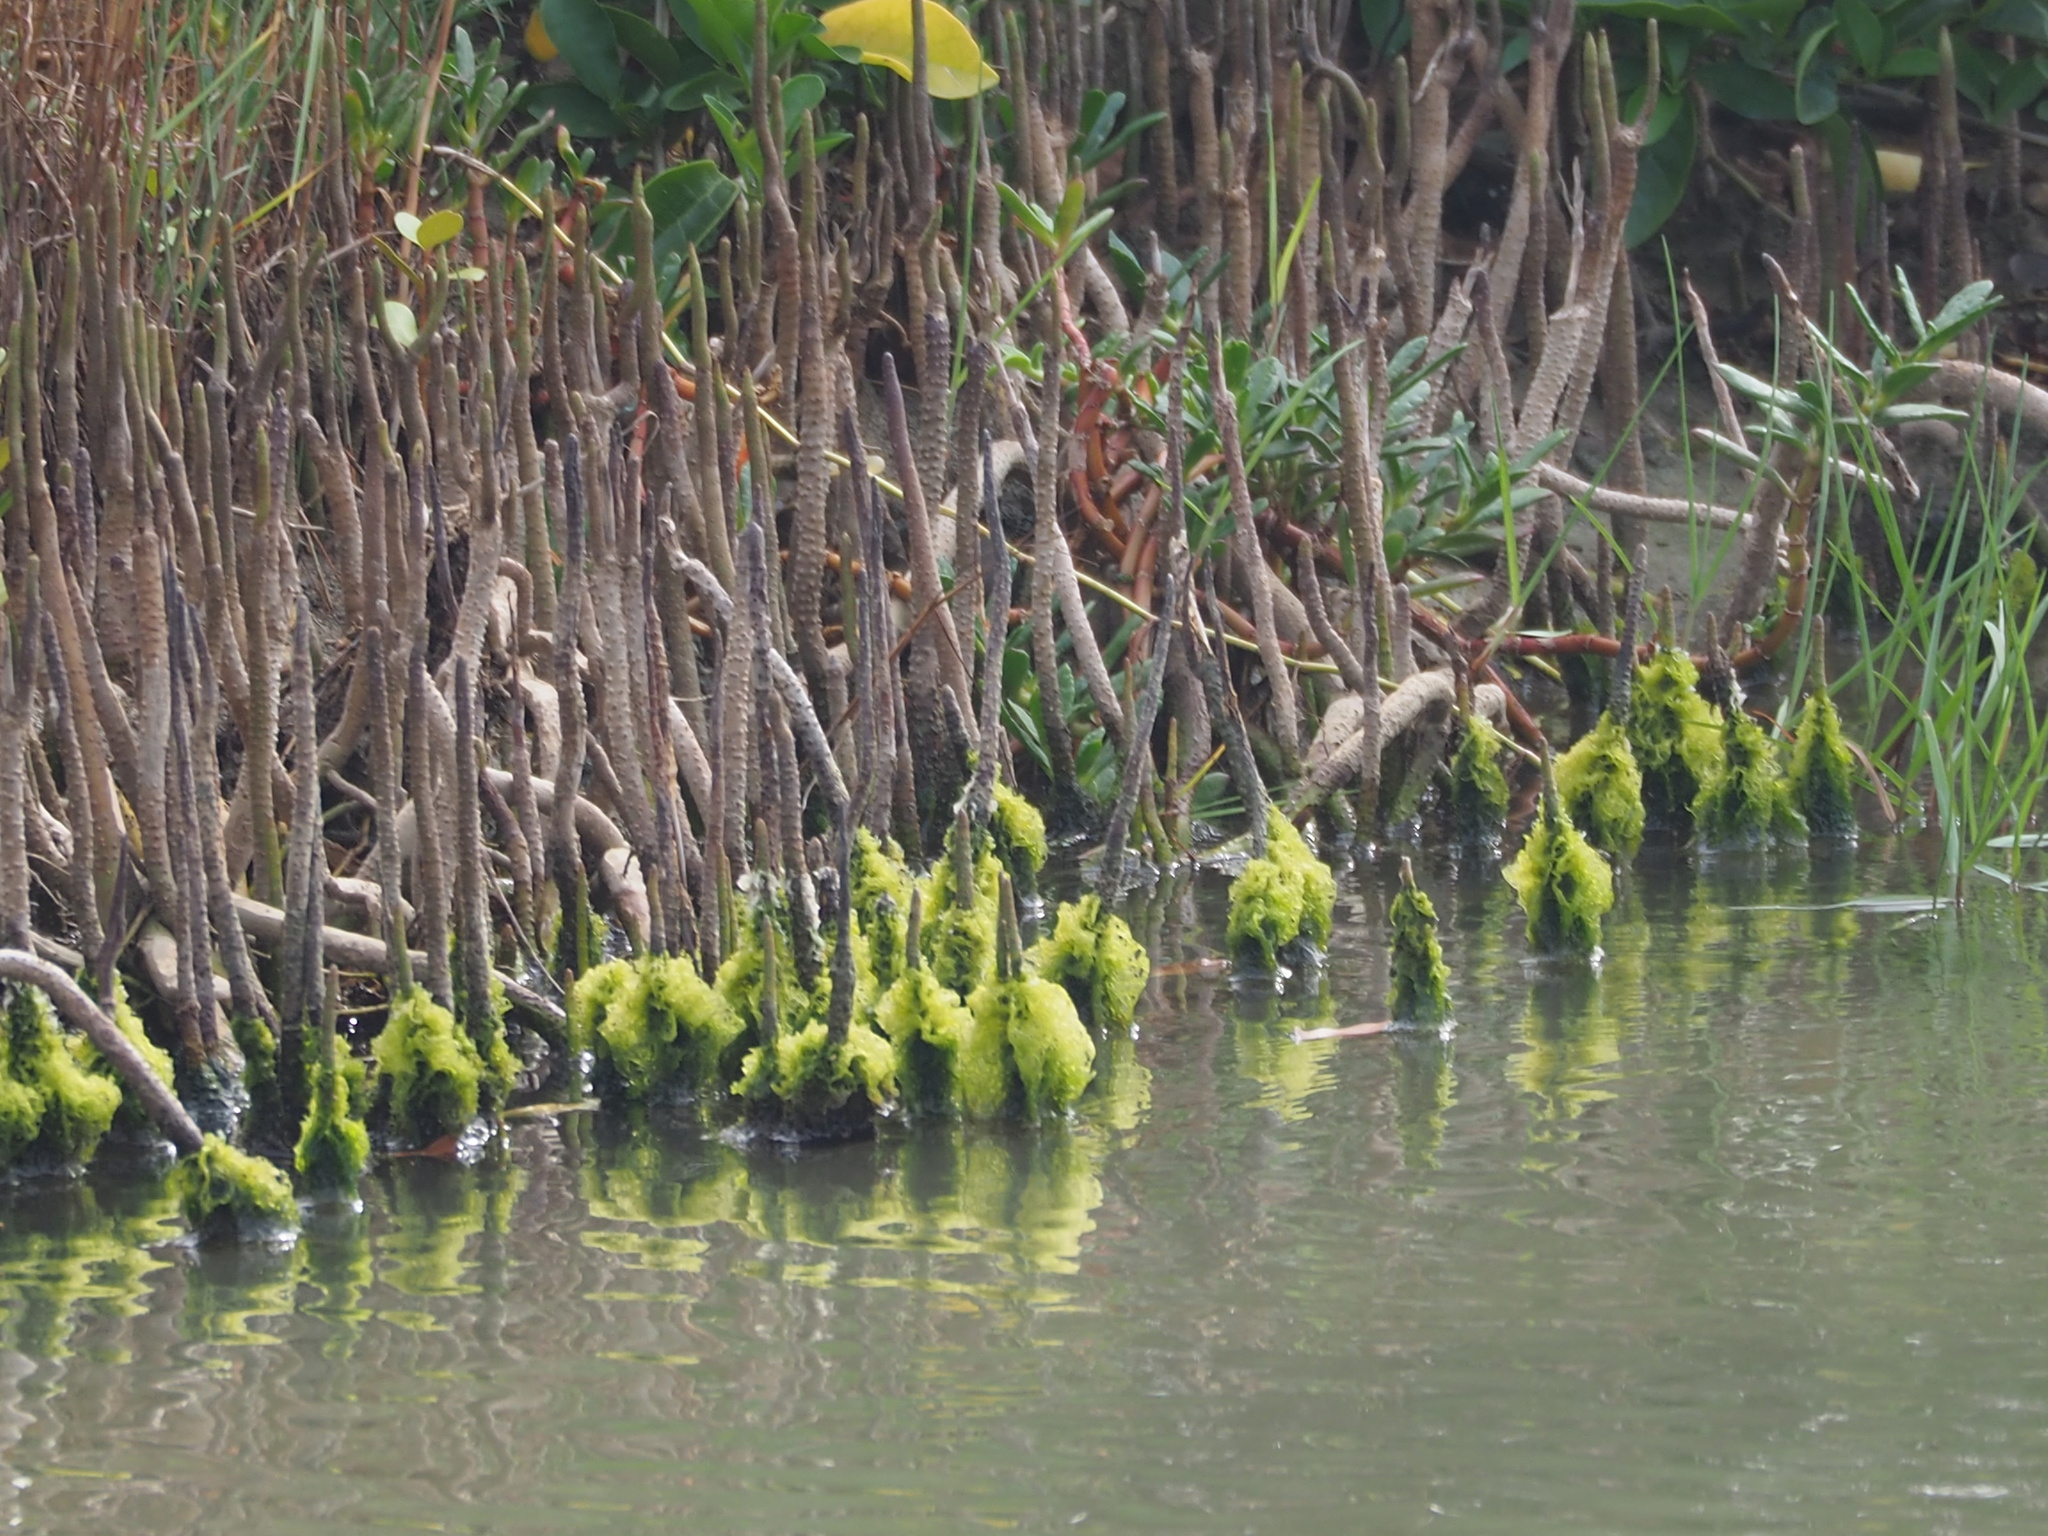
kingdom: Plantae
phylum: Tracheophyta
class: Magnoliopsida
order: Lamiales
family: Acanthaceae
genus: Avicennia
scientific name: Avicennia marina
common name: Gray mangrove
